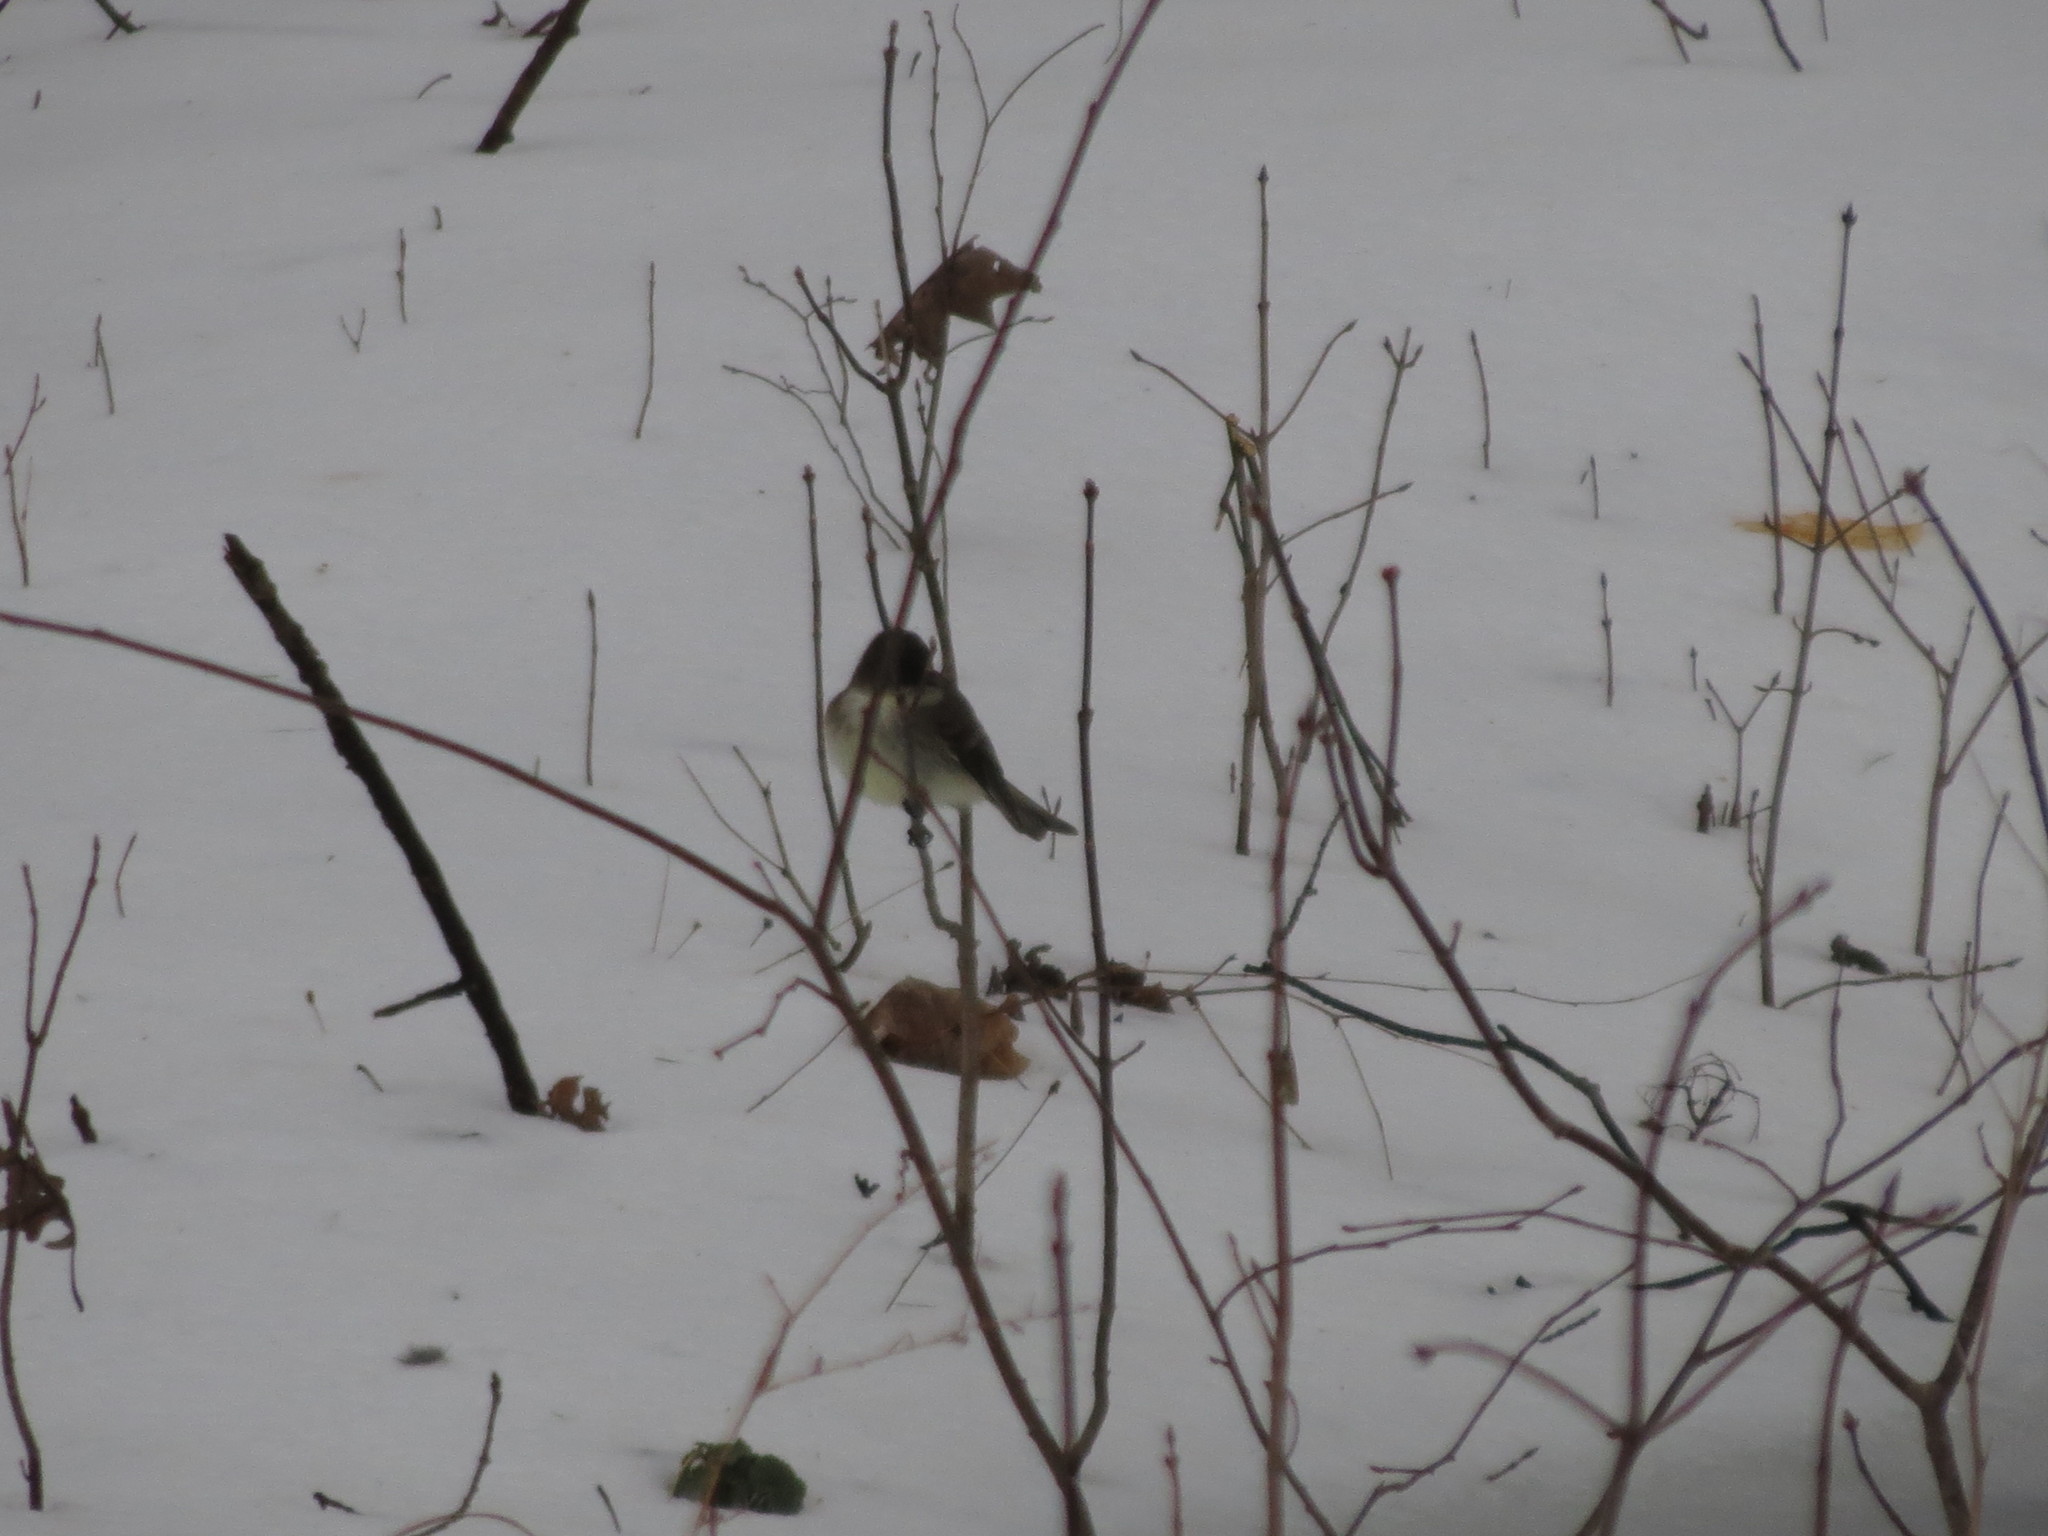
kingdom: Animalia
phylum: Chordata
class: Aves
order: Passeriformes
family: Tyrannidae
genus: Sayornis
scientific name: Sayornis phoebe
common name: Eastern phoebe
